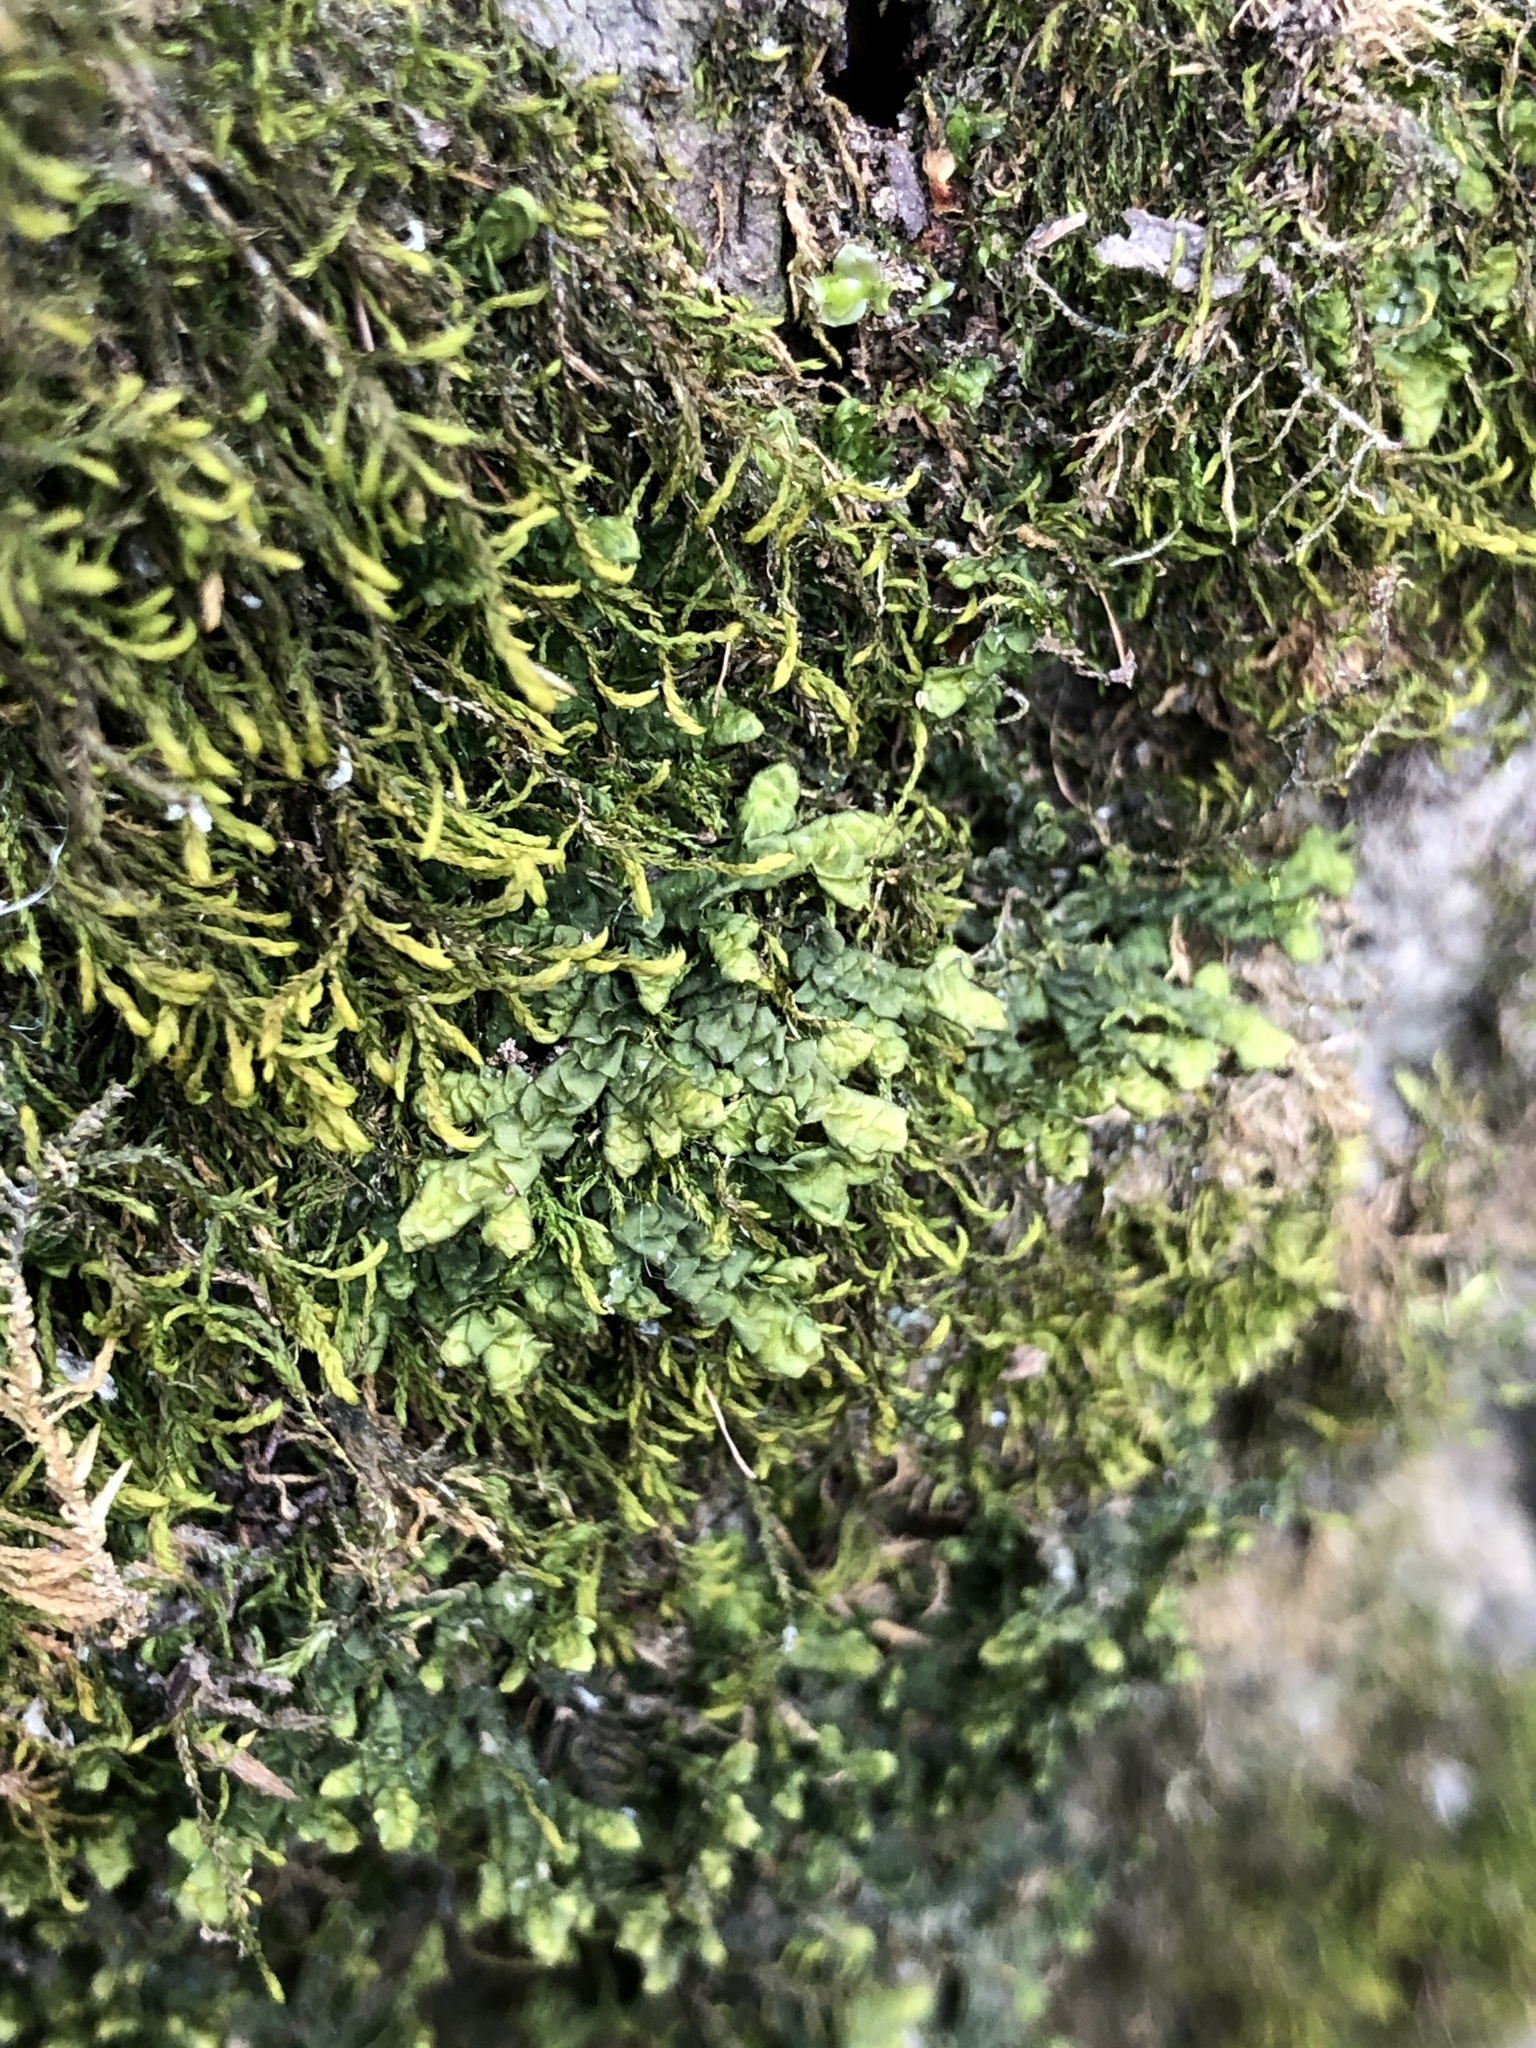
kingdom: Plantae
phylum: Marchantiophyta
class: Jungermanniopsida
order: Porellales
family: Porellaceae
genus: Porella
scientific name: Porella platyphylla
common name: Wall scalewort
